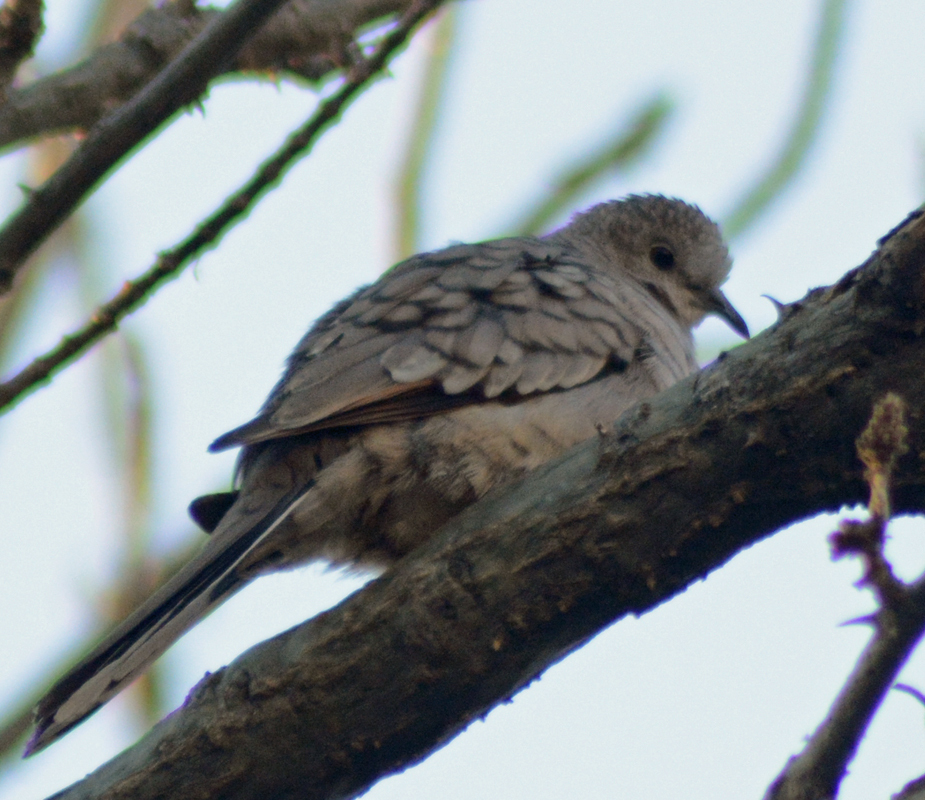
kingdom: Animalia
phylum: Chordata
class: Aves
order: Columbiformes
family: Columbidae
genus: Columbina
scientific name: Columbina inca
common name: Inca dove
